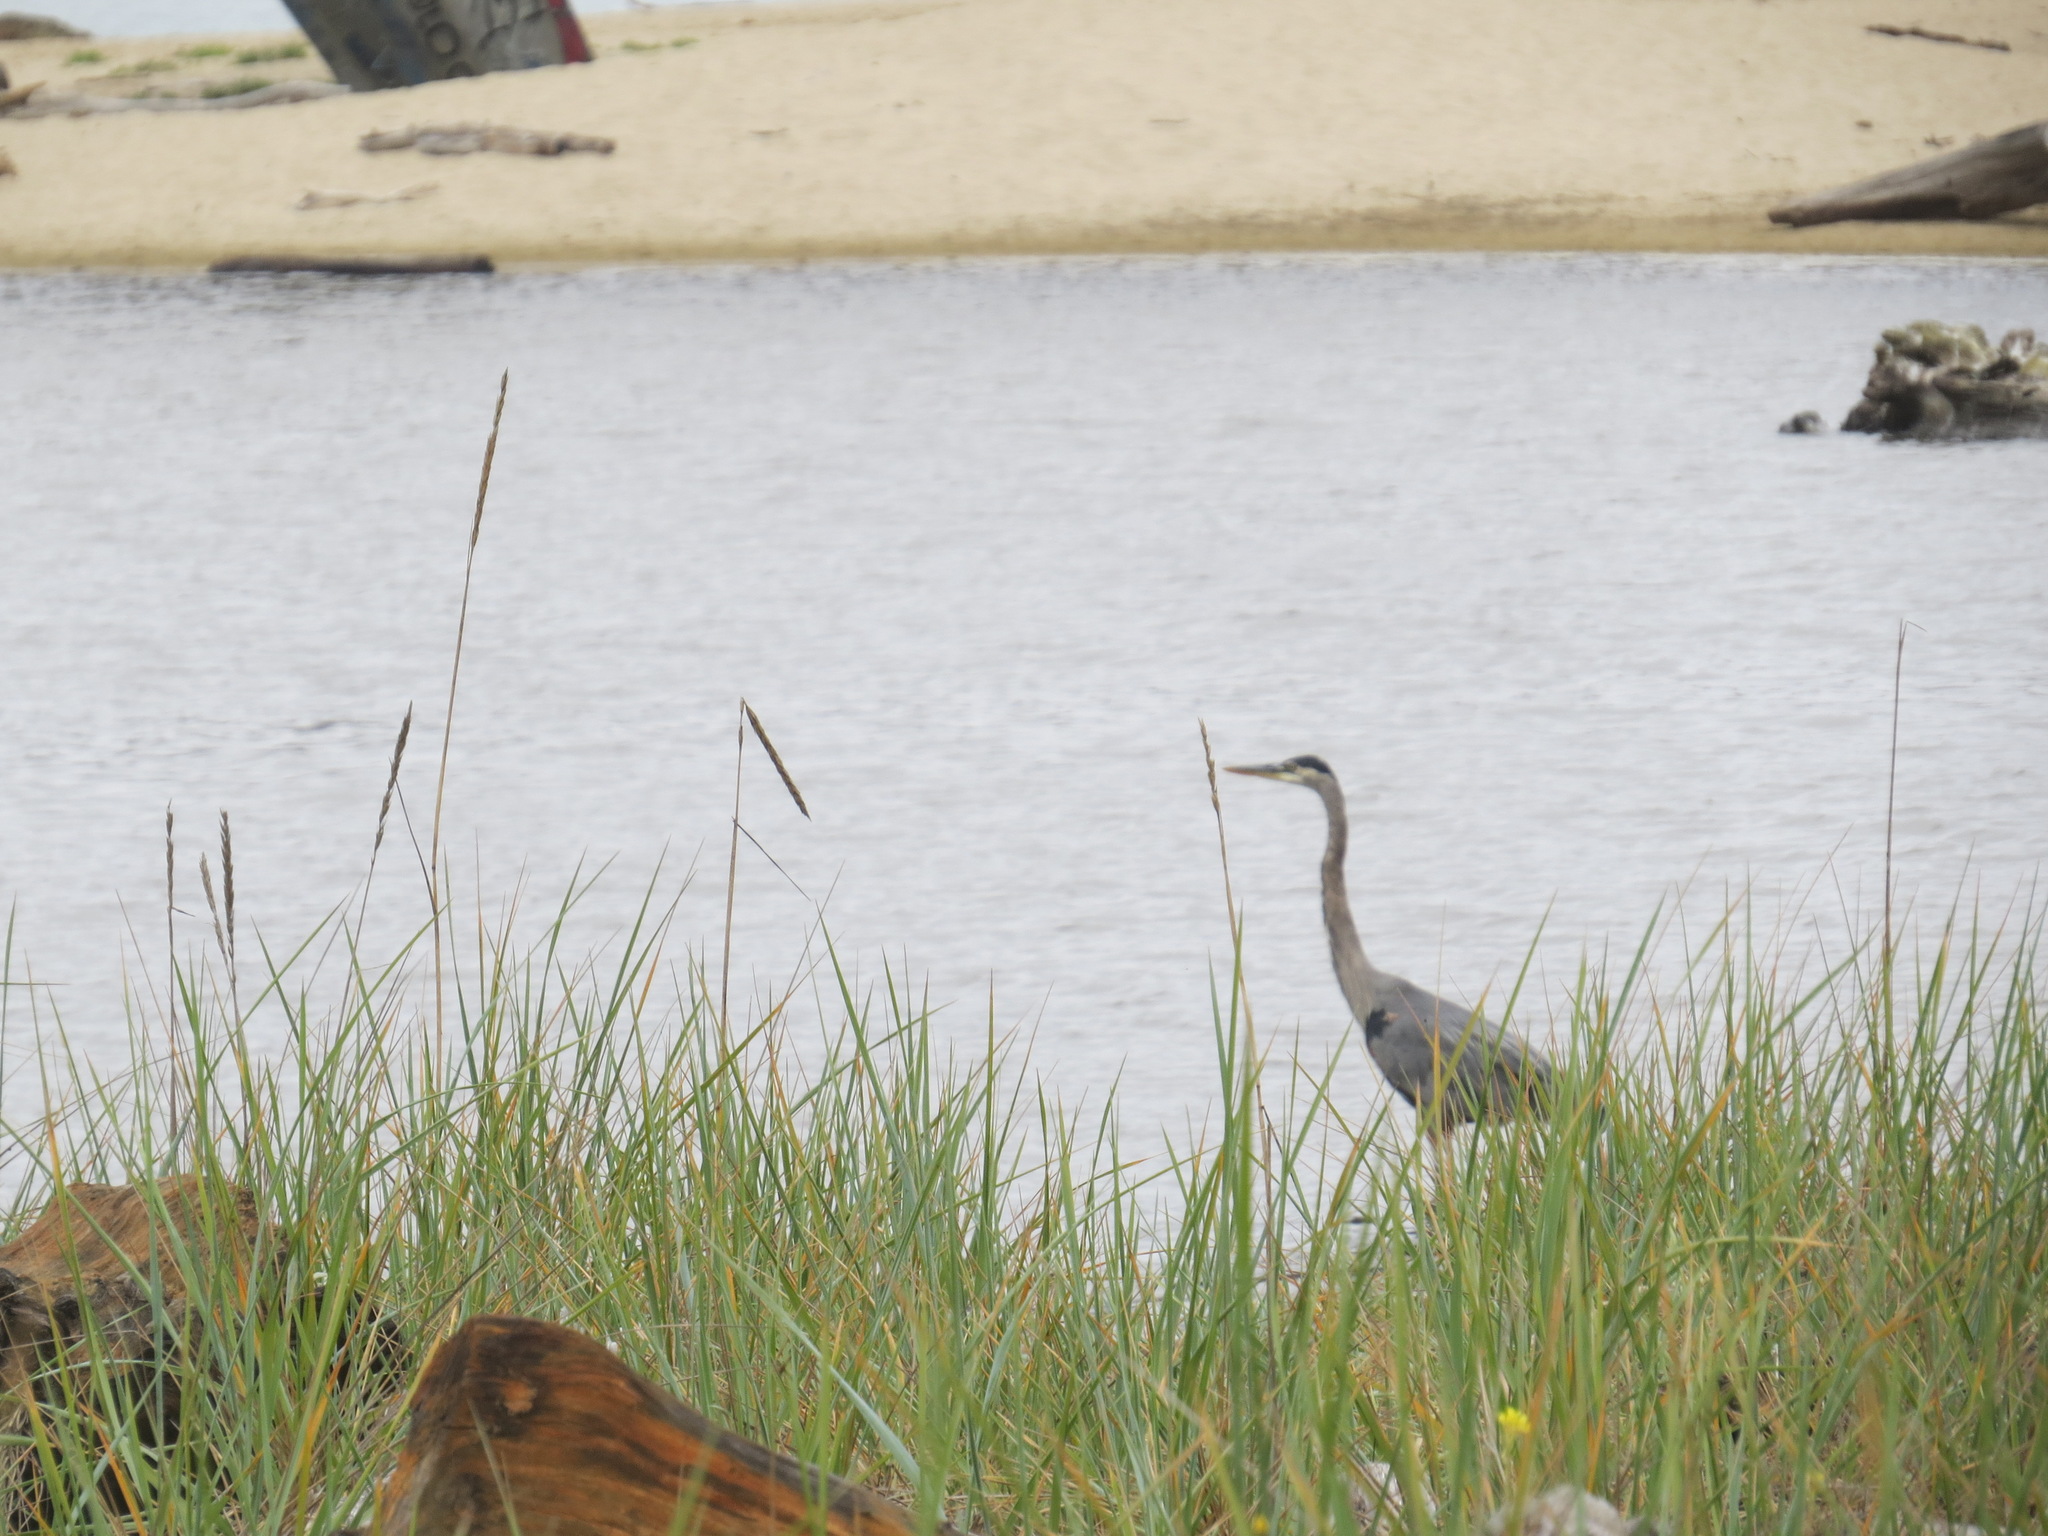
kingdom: Animalia
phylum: Chordata
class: Aves
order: Pelecaniformes
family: Ardeidae
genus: Ardea
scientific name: Ardea herodias
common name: Great blue heron
